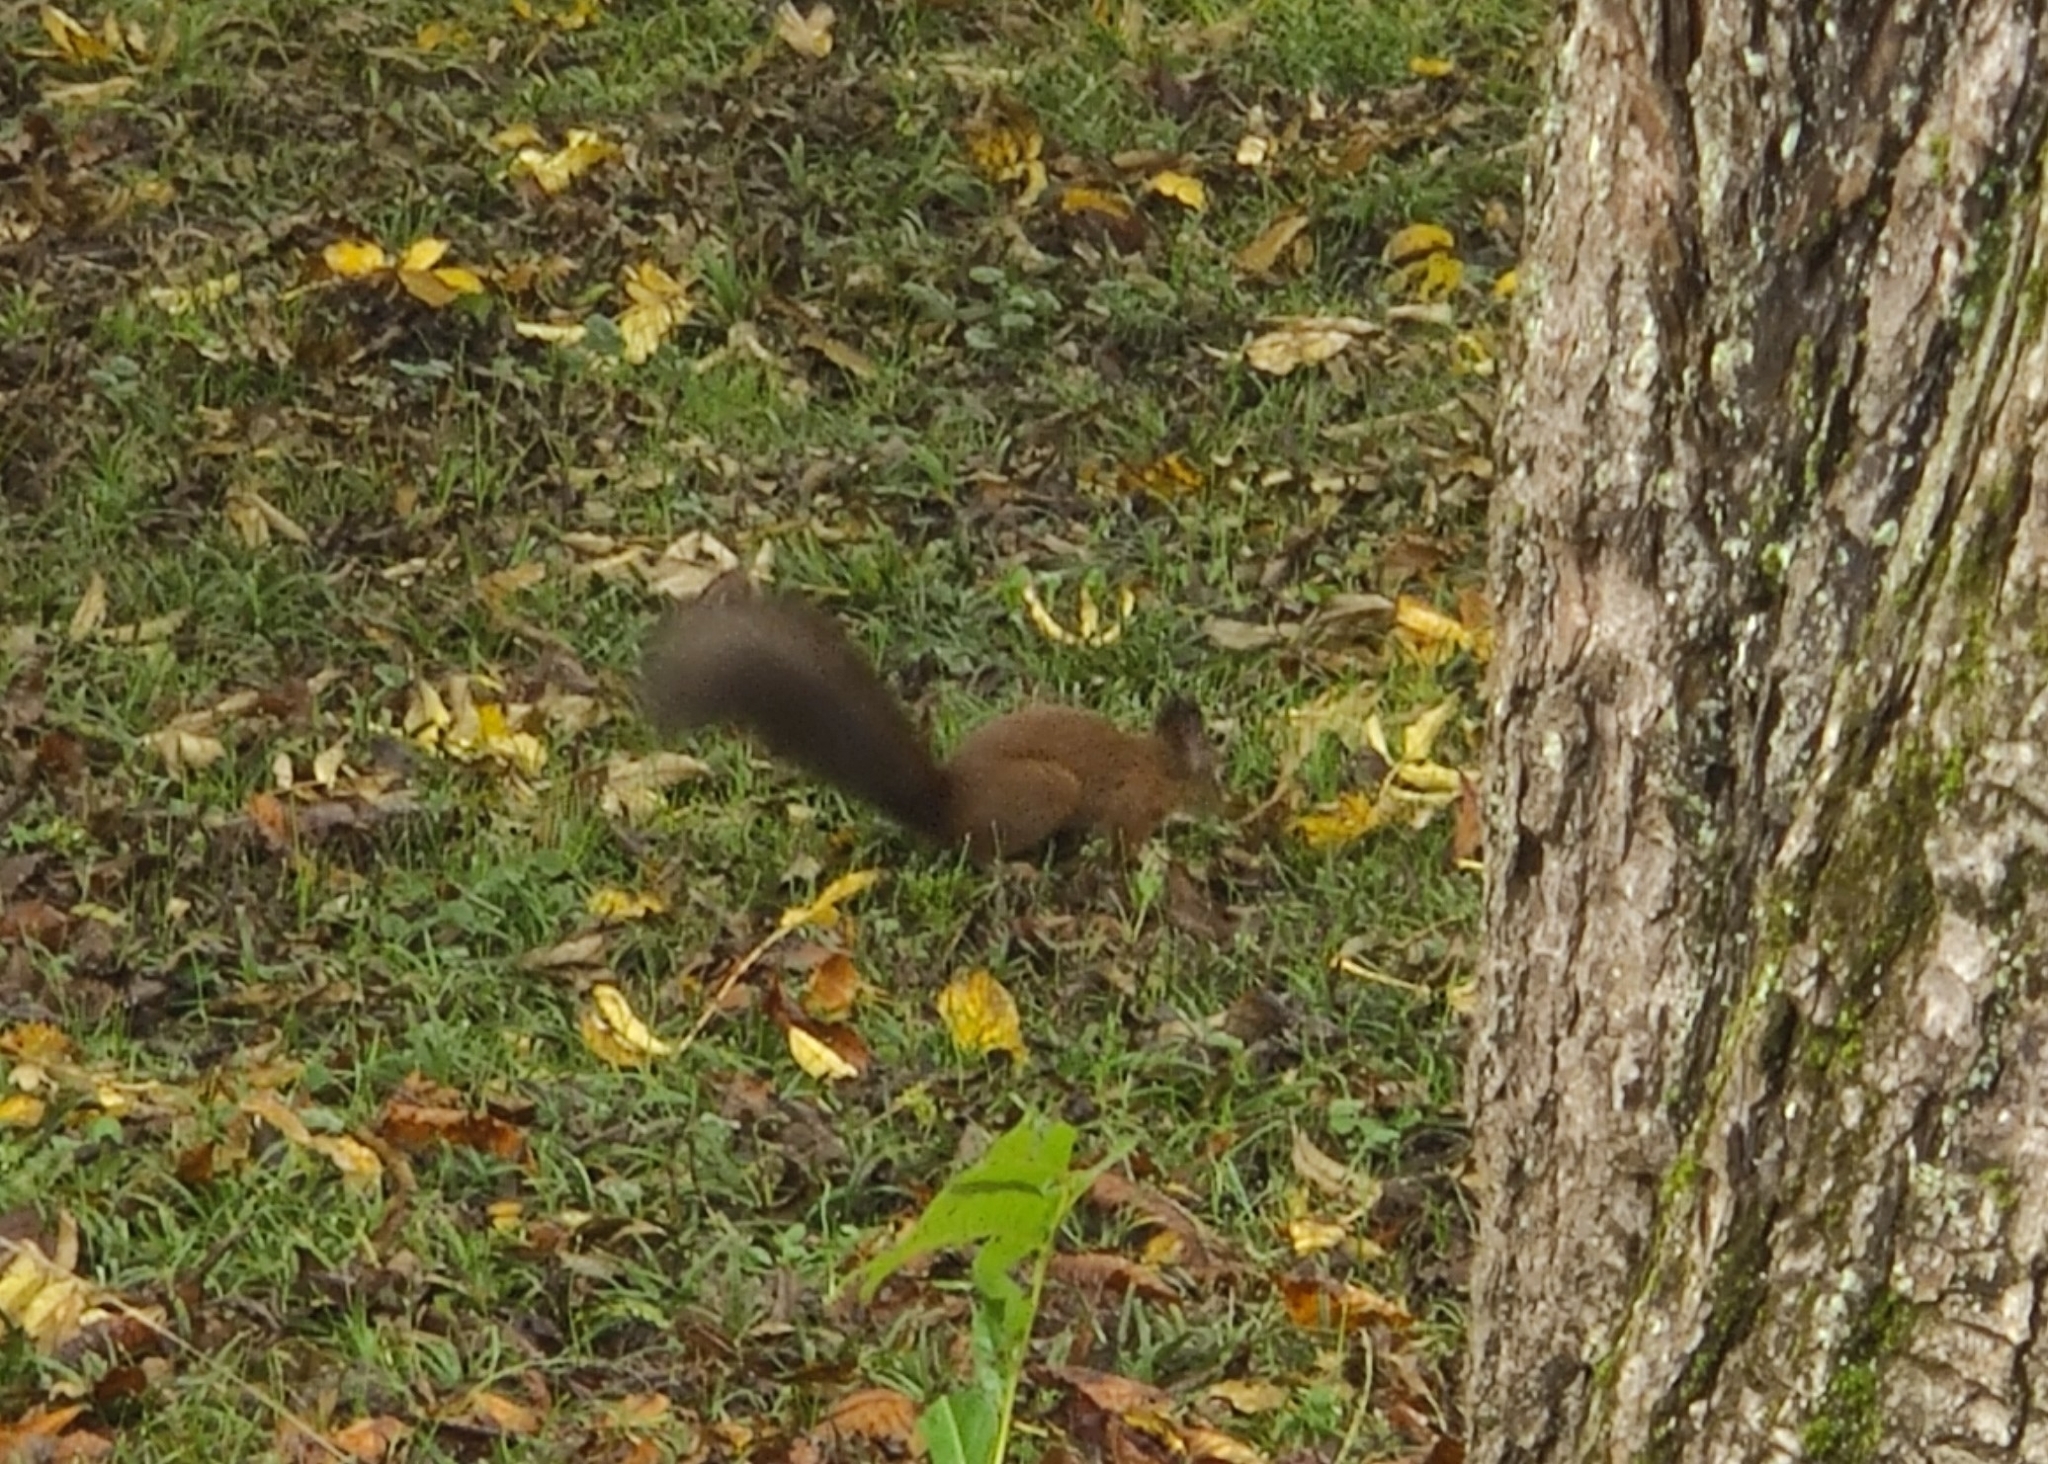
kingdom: Animalia
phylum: Chordata
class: Mammalia
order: Rodentia
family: Sciuridae
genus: Sciurus
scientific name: Sciurus vulgaris
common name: Eurasian red squirrel
